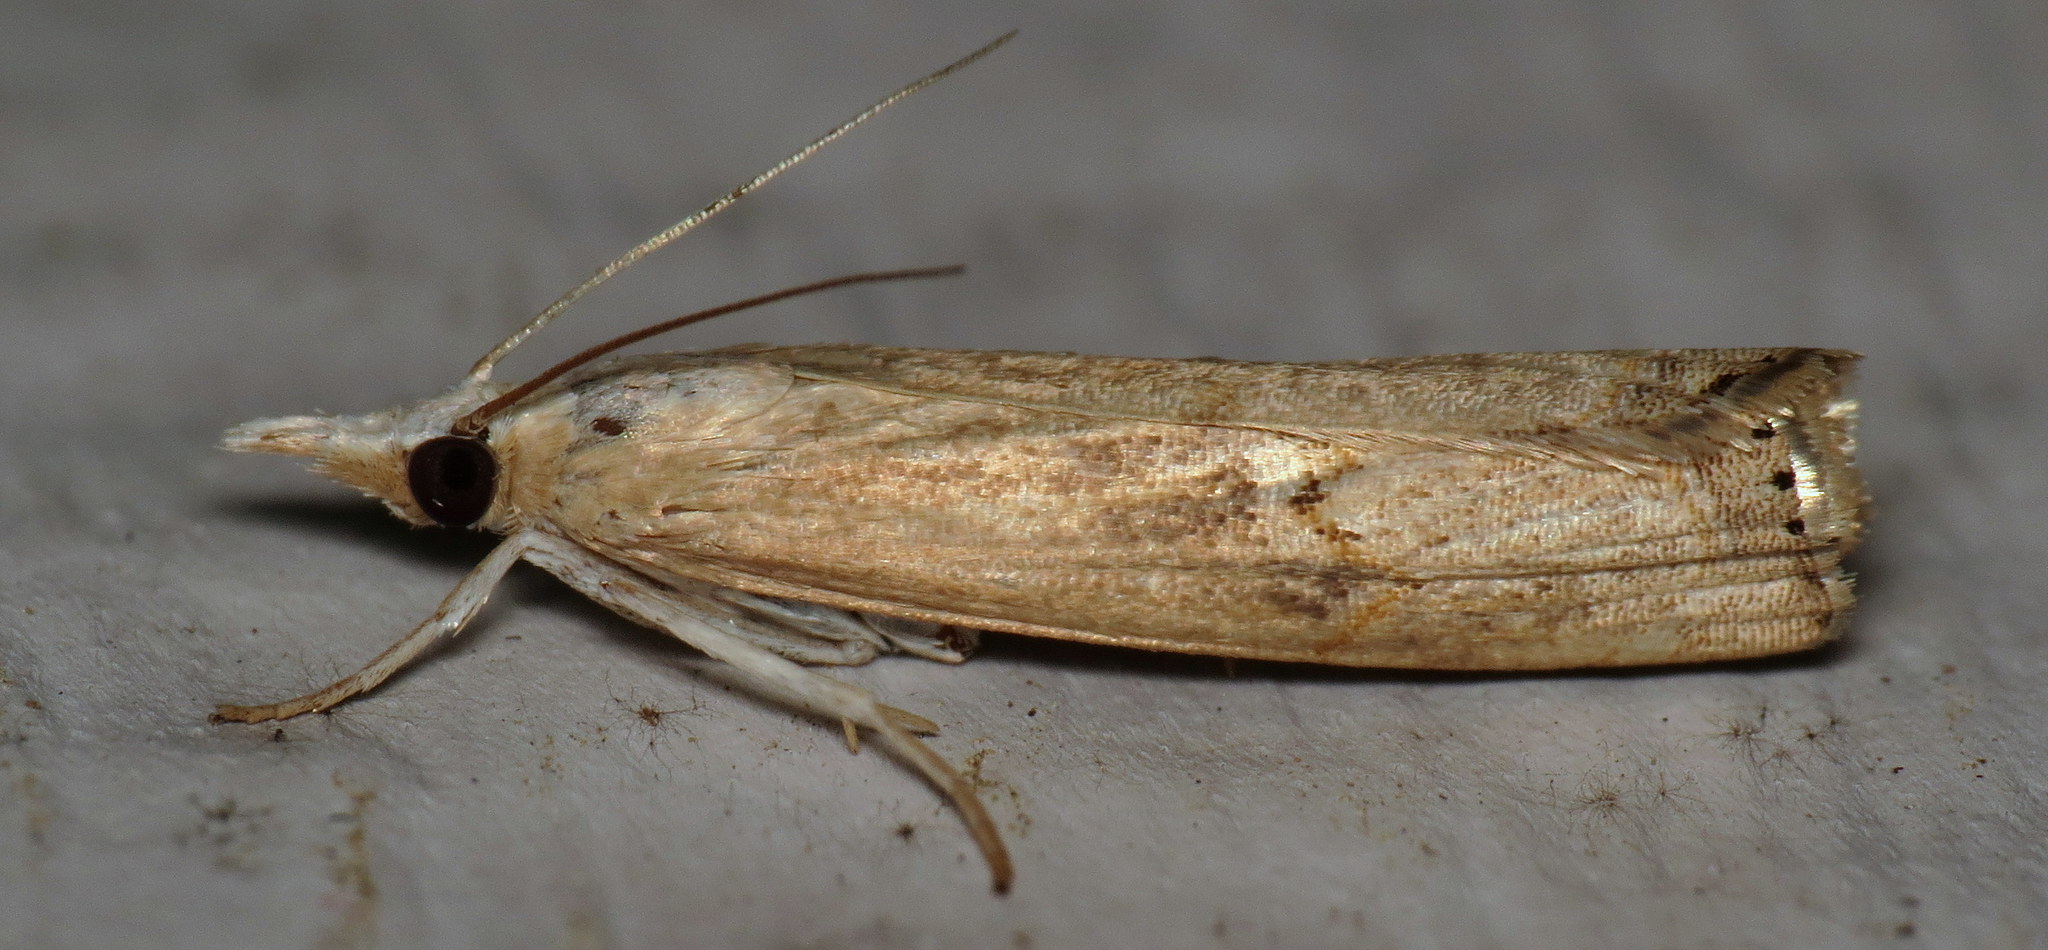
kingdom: Animalia
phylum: Arthropoda
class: Insecta
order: Lepidoptera
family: Crambidae
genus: Parapediasia
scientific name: Parapediasia teterellus
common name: Bluegrass webworm moth
